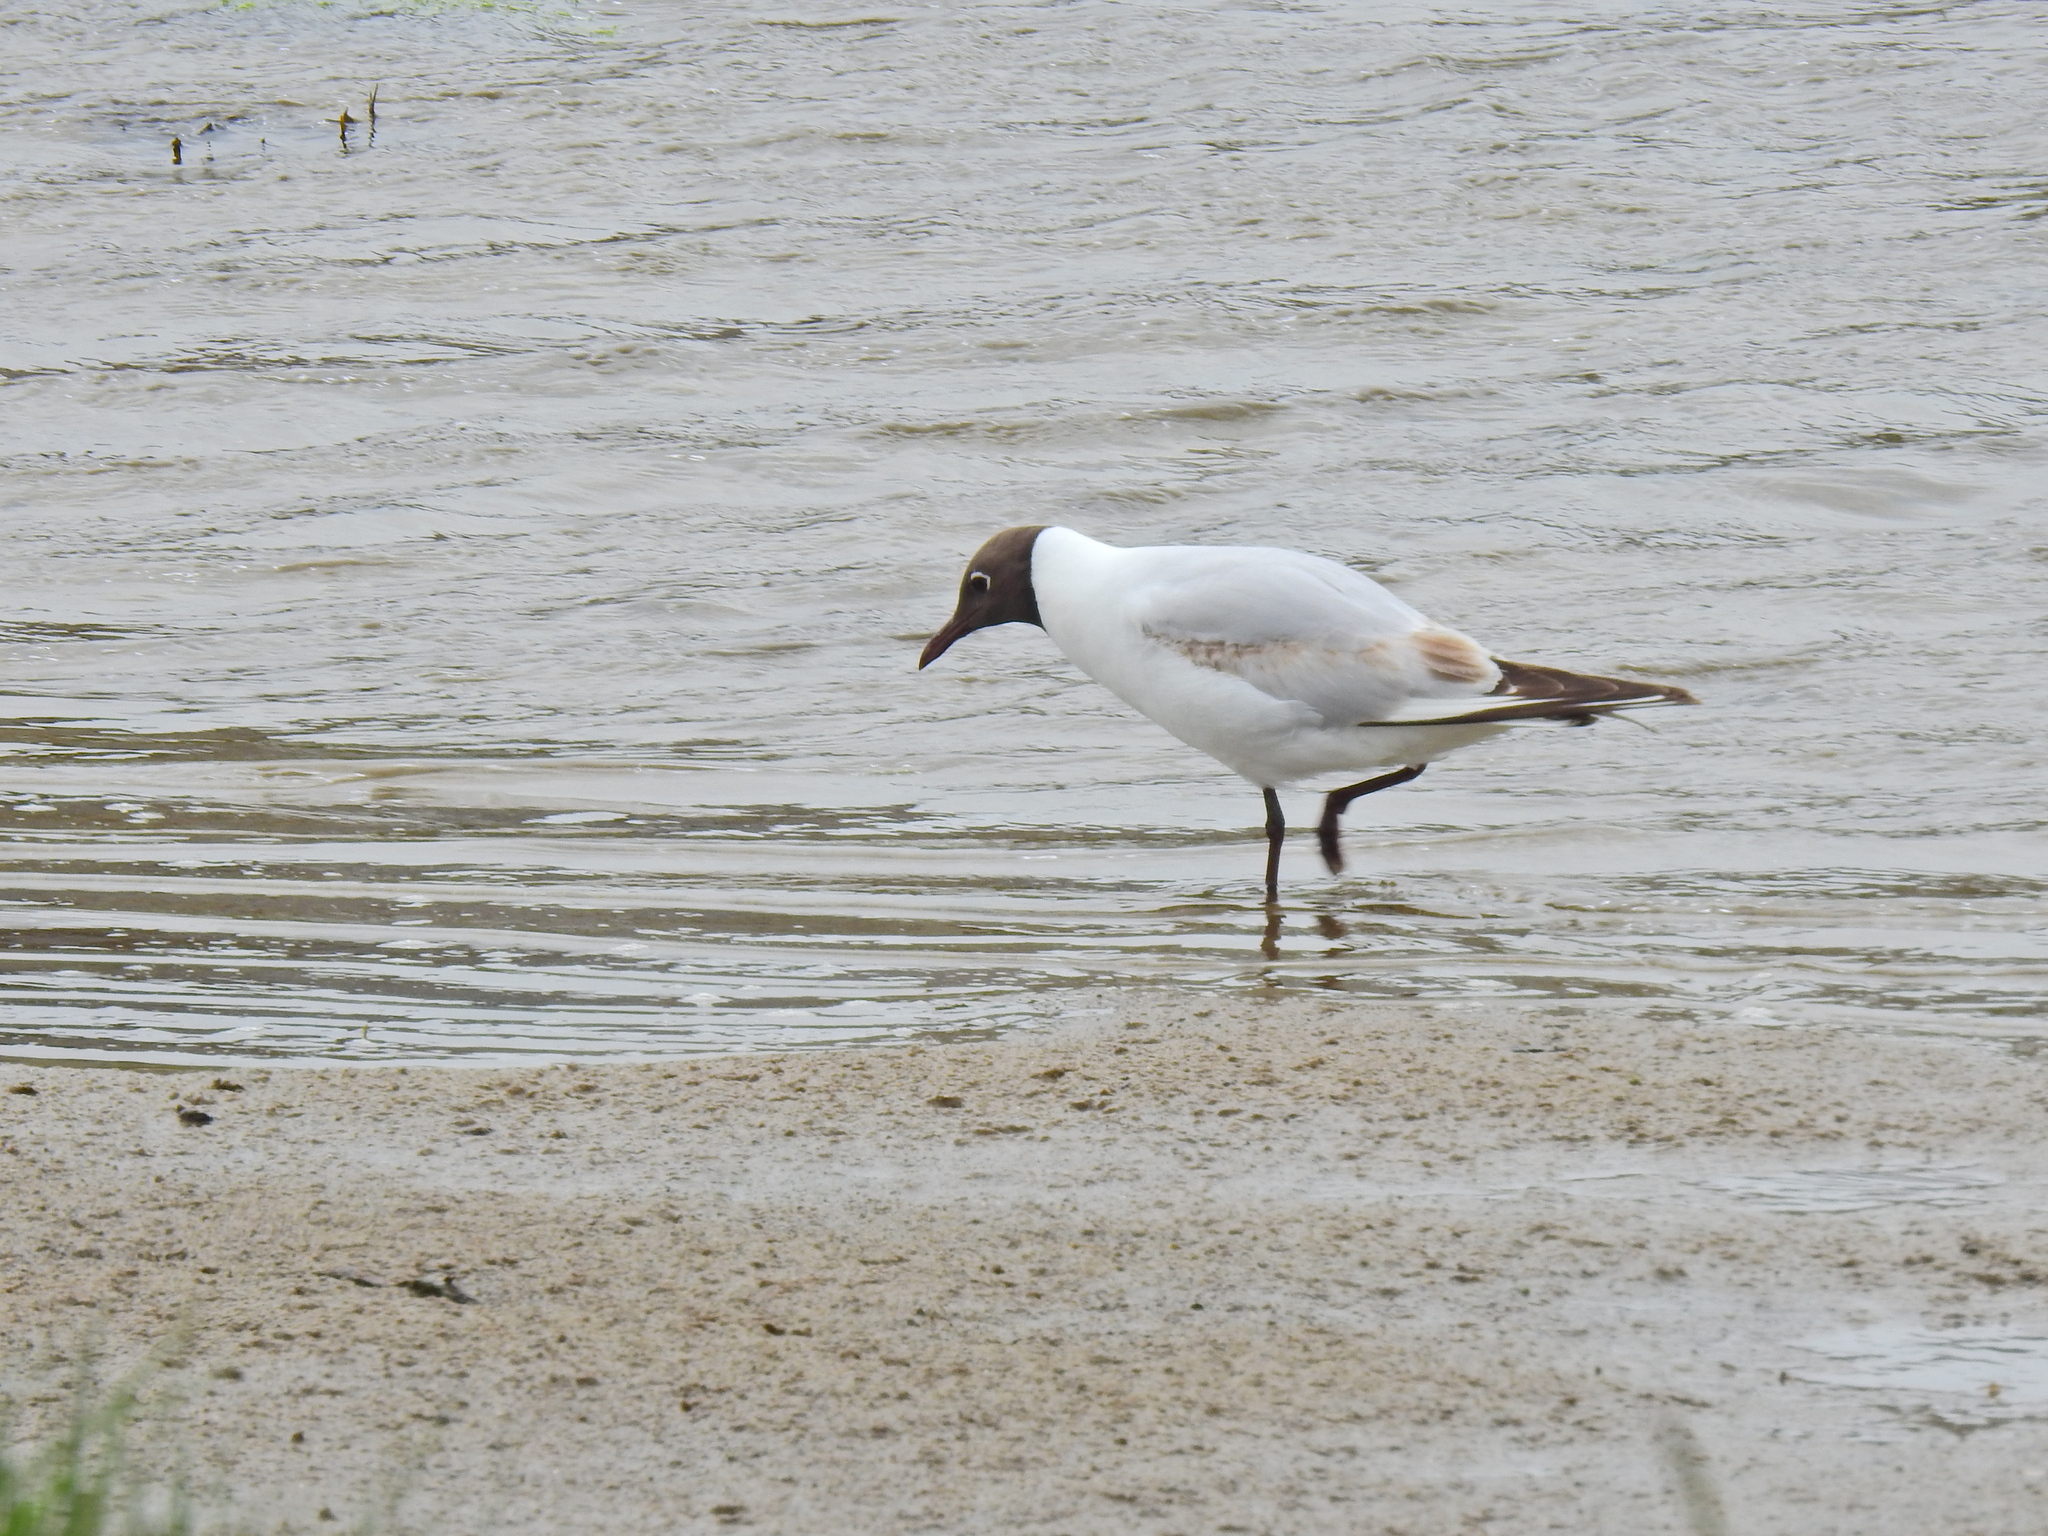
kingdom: Animalia
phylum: Chordata
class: Aves
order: Charadriiformes
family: Laridae
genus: Chroicocephalus
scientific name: Chroicocephalus ridibundus
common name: Black-headed gull
